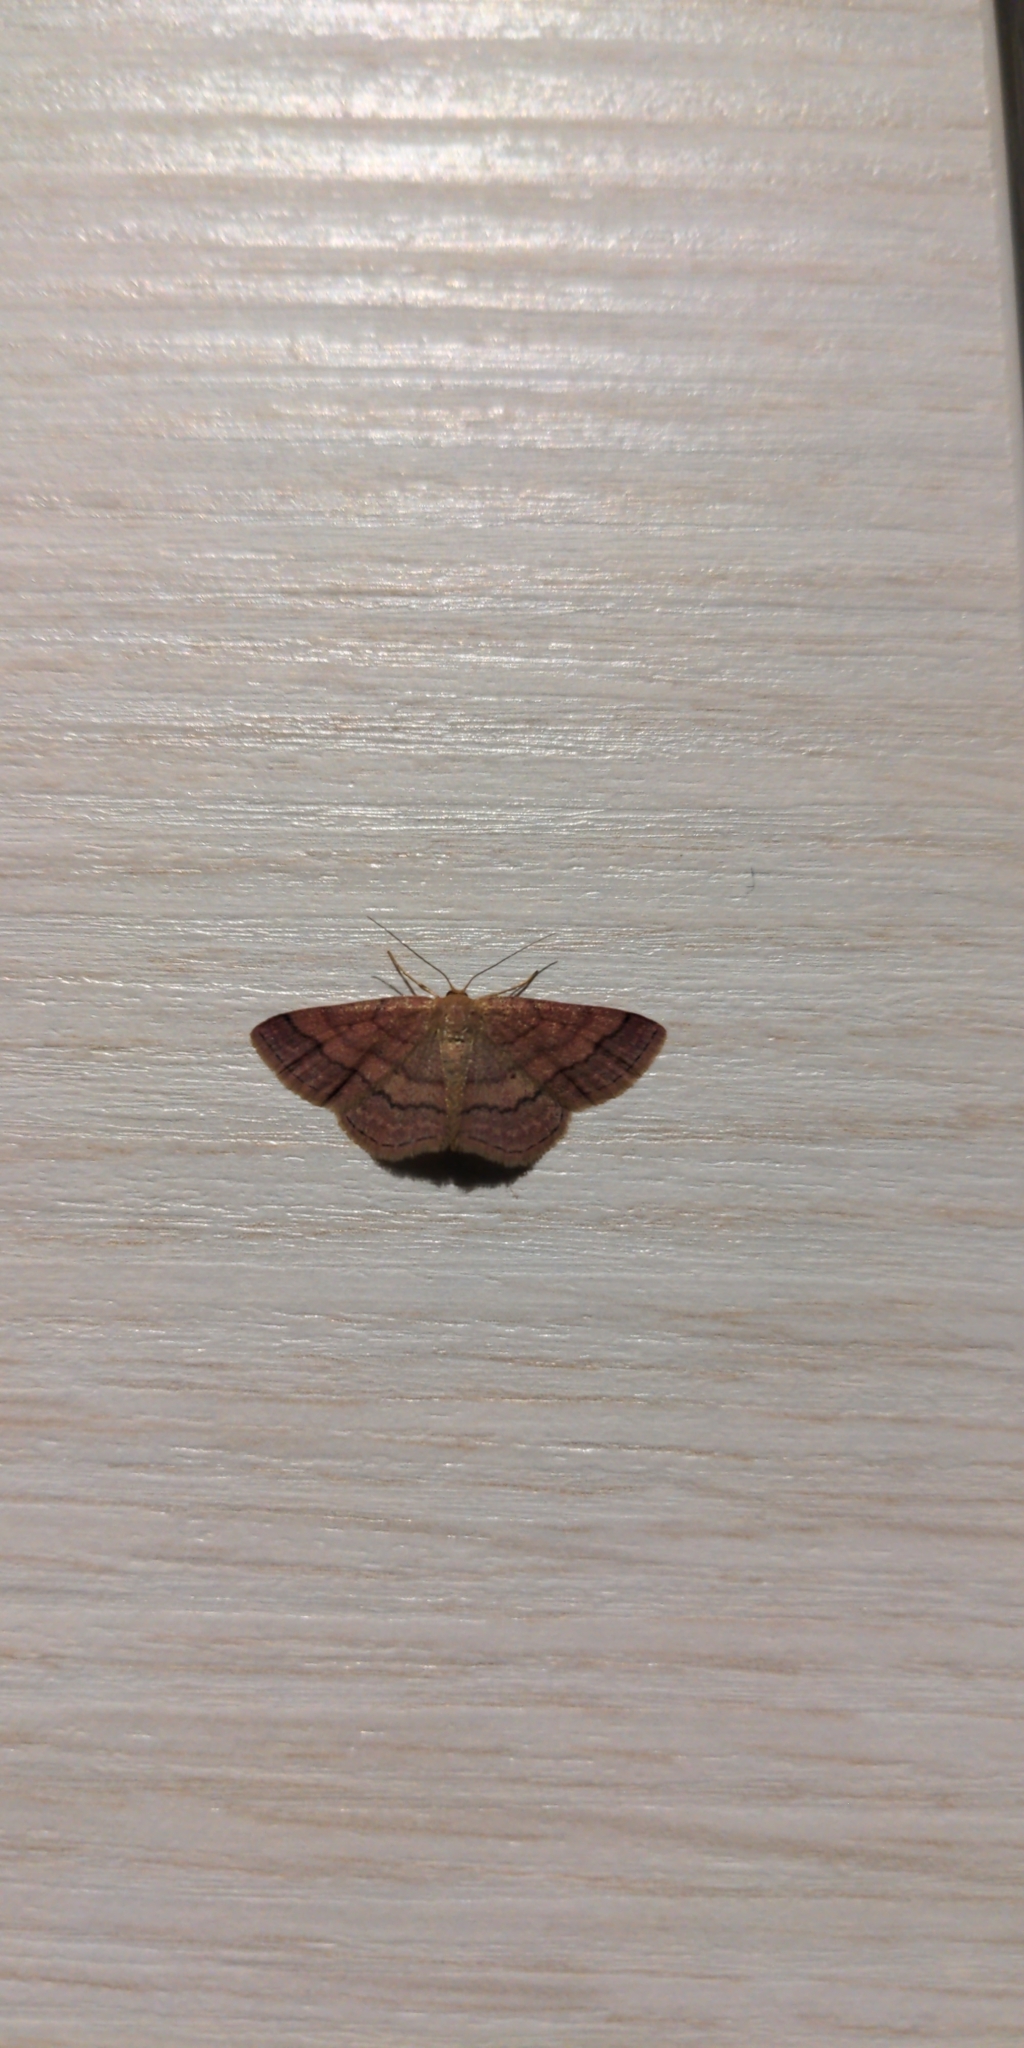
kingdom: Animalia
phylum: Arthropoda
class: Insecta
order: Lepidoptera
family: Geometridae
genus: Scopula
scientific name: Scopula rubiginata
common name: Tawny wave
